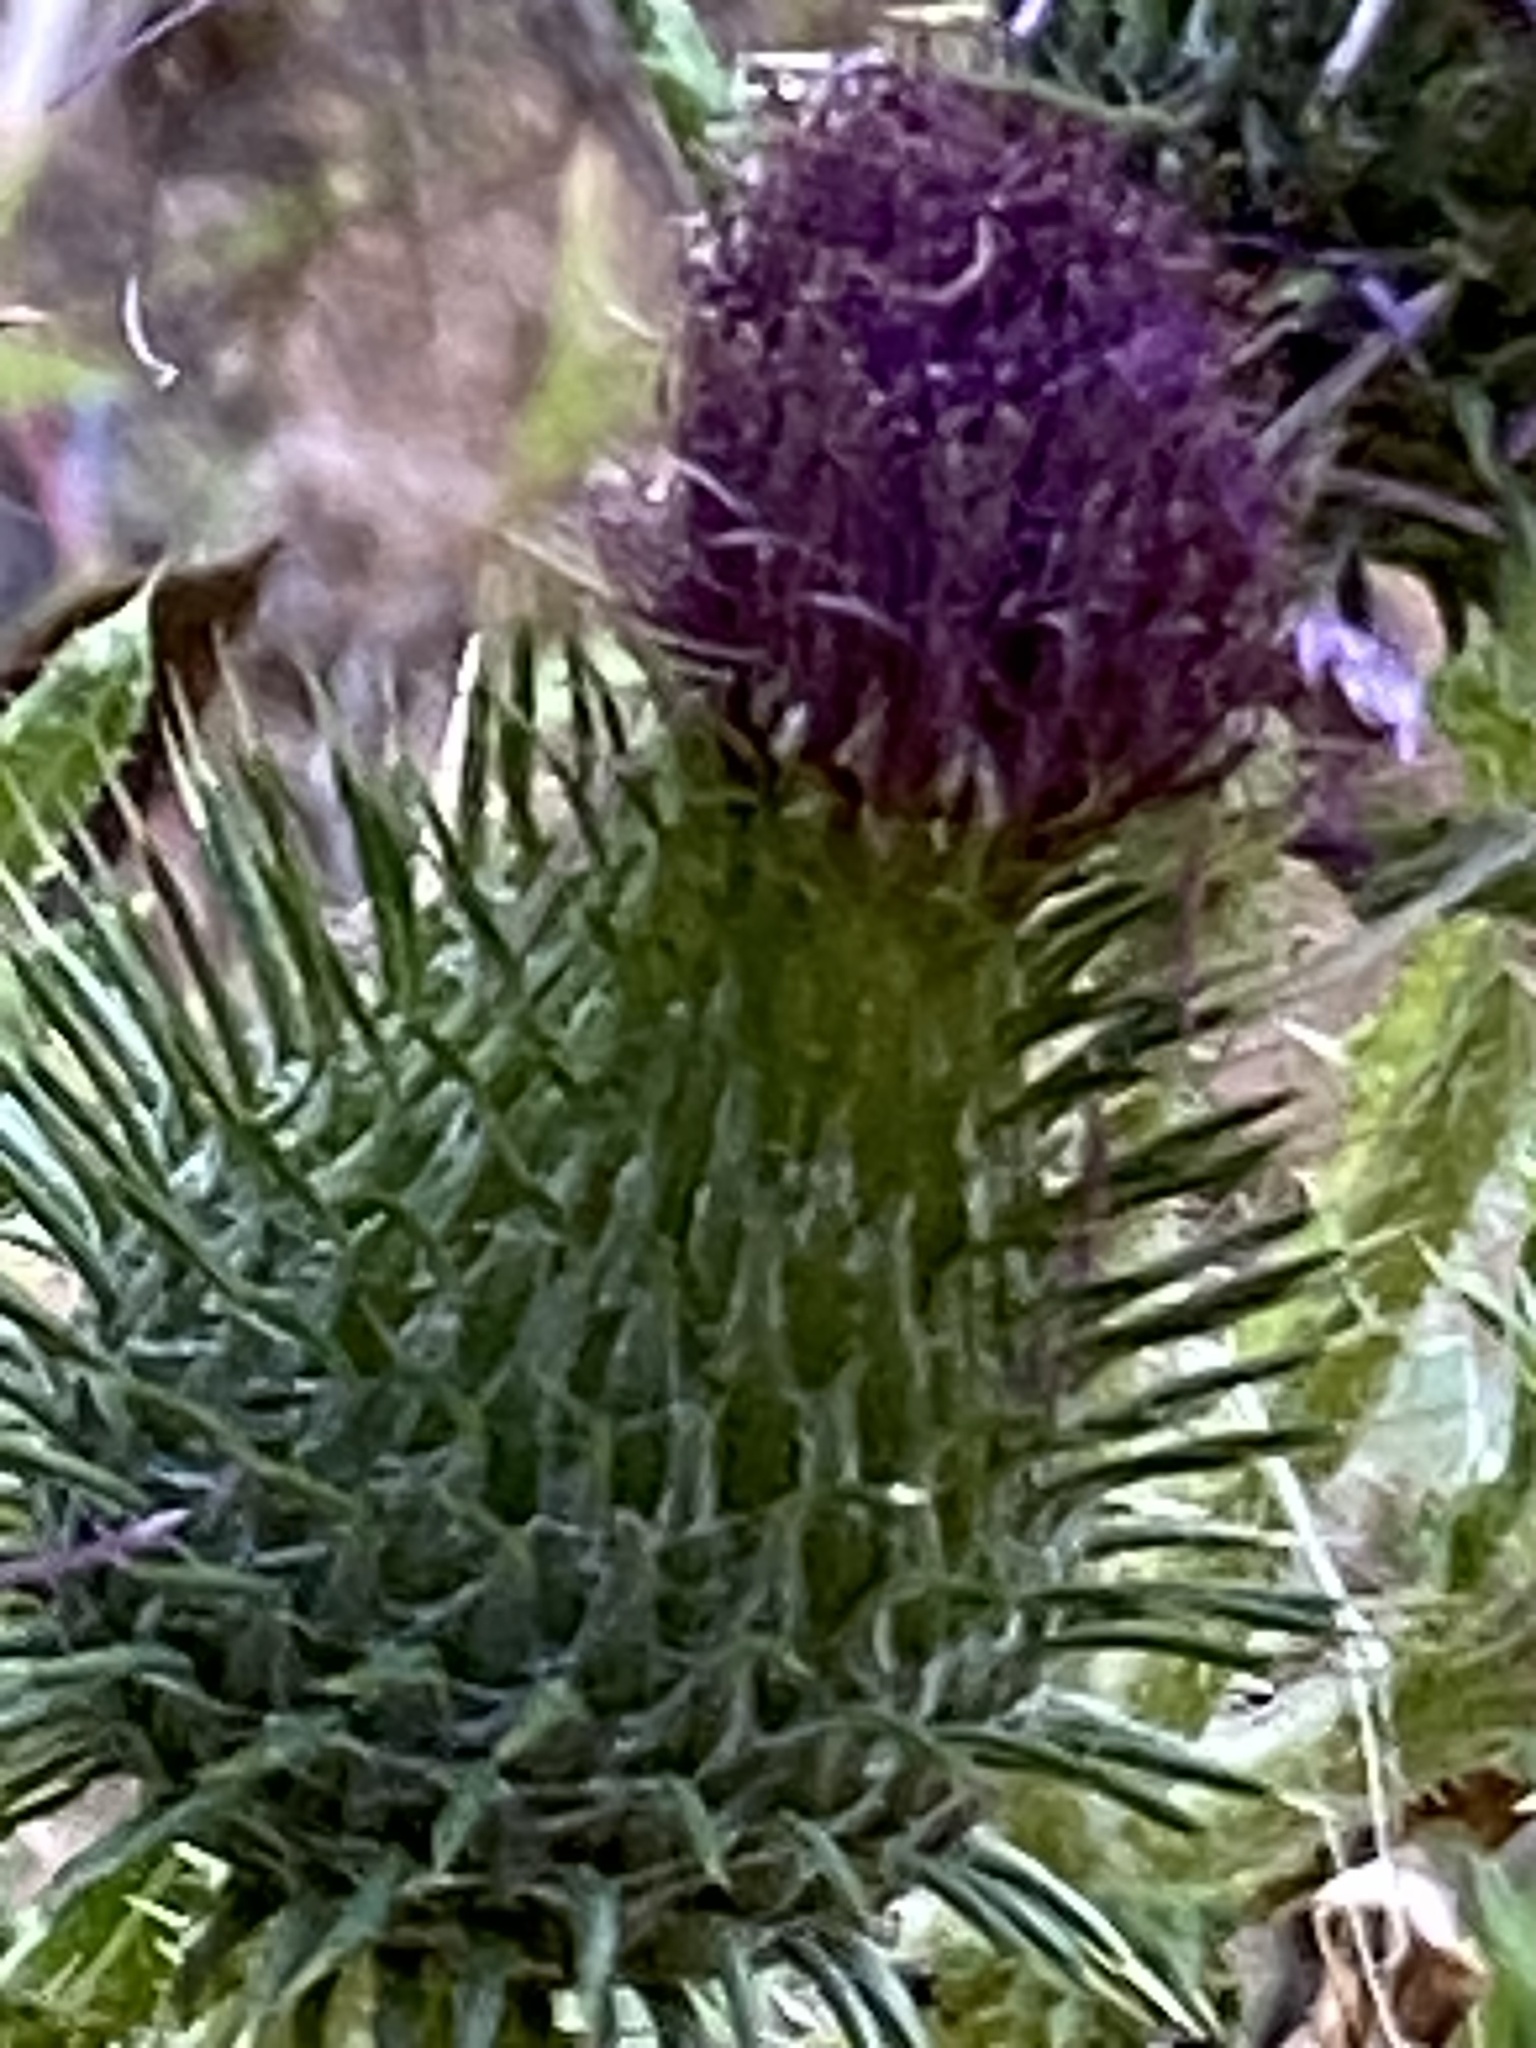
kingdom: Plantae
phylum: Tracheophyta
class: Magnoliopsida
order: Asterales
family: Asteraceae
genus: Cirsium
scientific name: Cirsium vulgare
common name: Bull thistle
